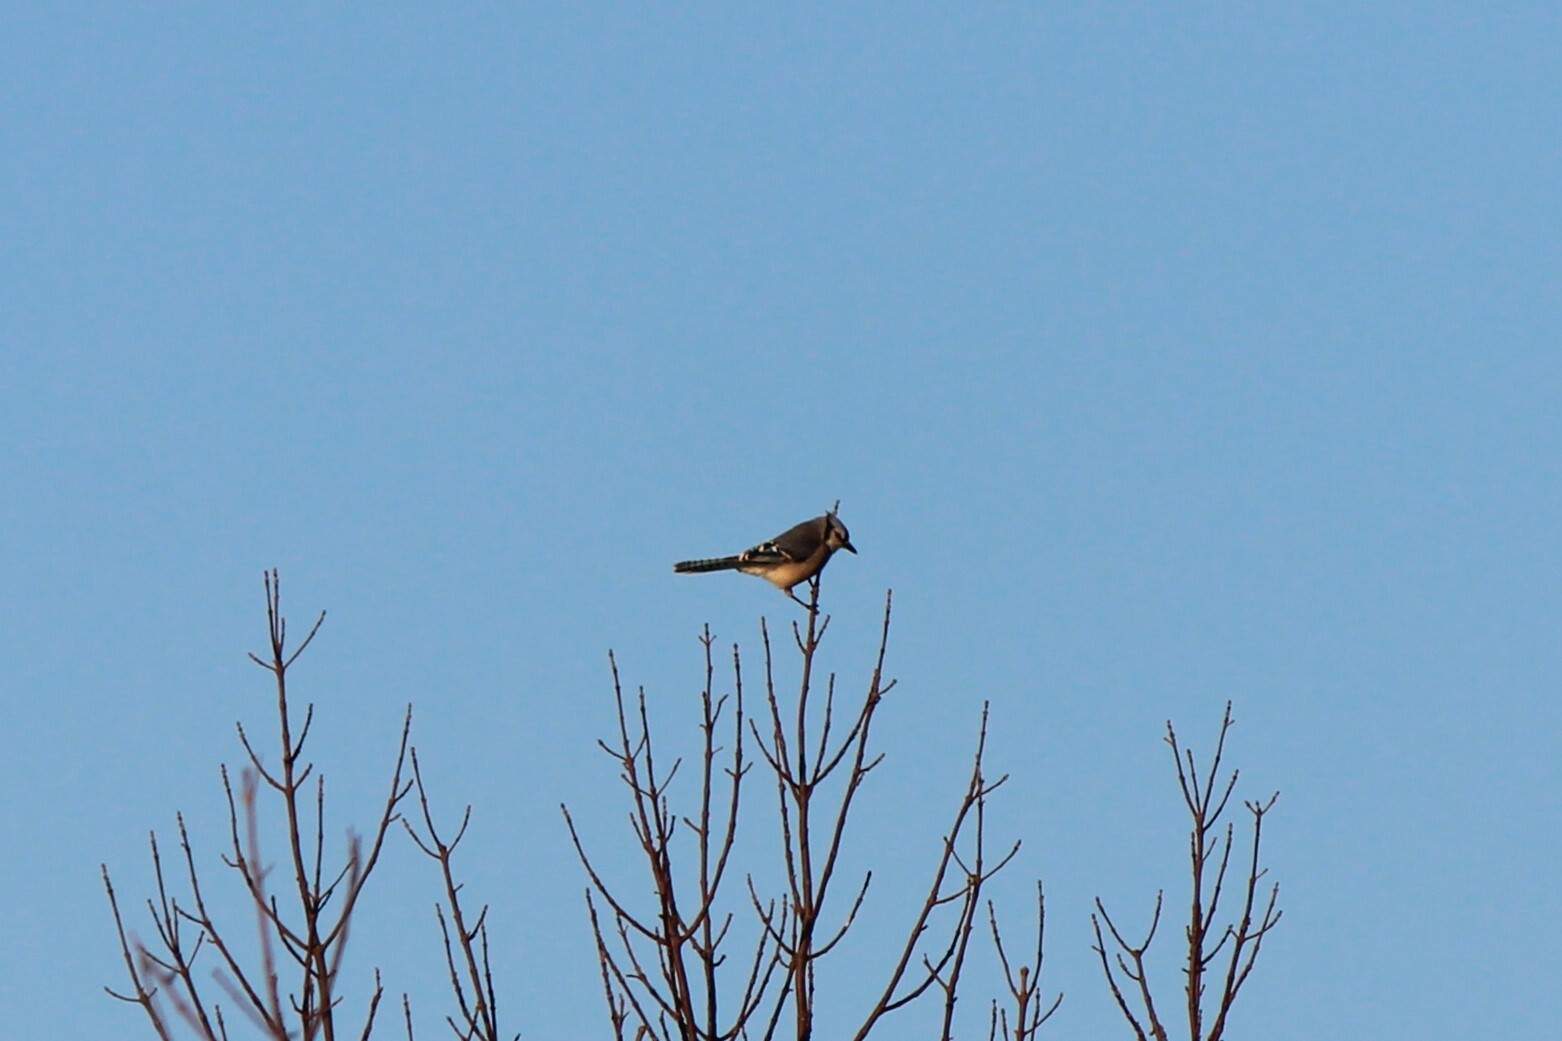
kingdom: Animalia
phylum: Chordata
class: Aves
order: Passeriformes
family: Corvidae
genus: Cyanocitta
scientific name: Cyanocitta cristata
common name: Blue jay
